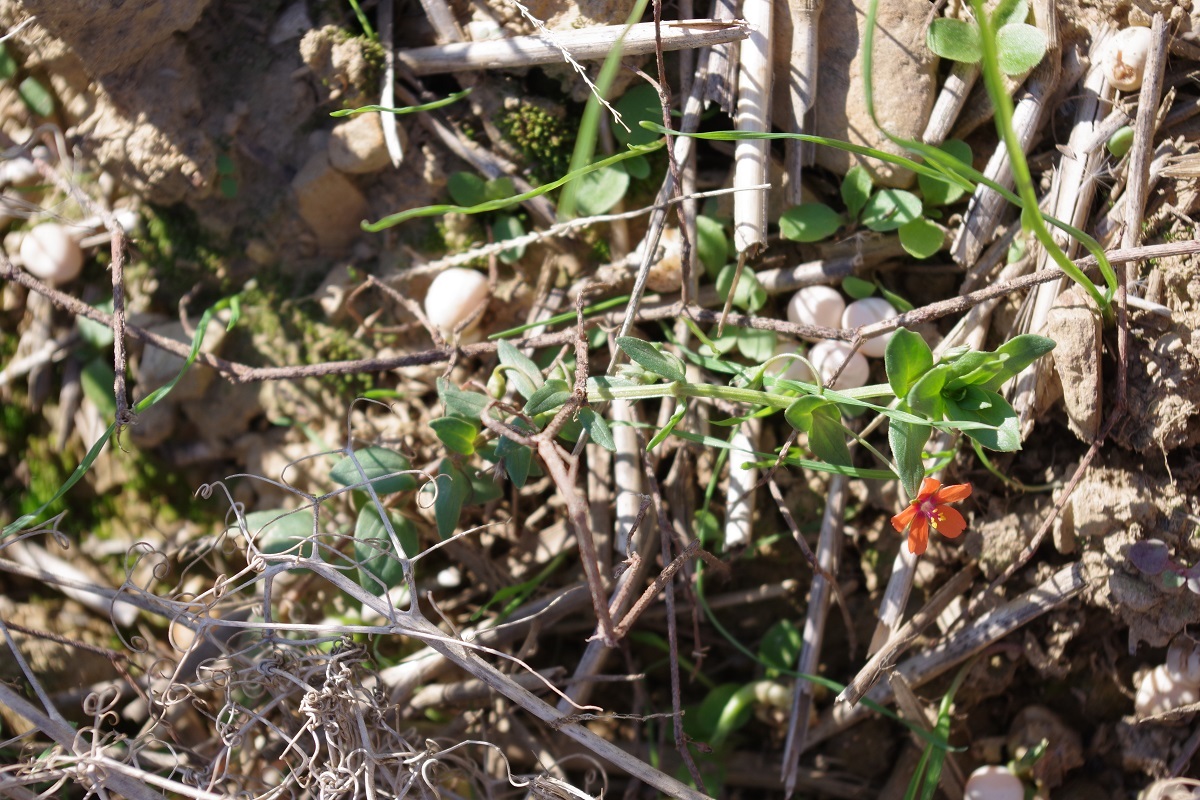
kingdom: Plantae
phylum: Tracheophyta
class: Magnoliopsida
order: Ericales
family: Primulaceae
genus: Lysimachia
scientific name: Lysimachia arvensis
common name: Scarlet pimpernel
